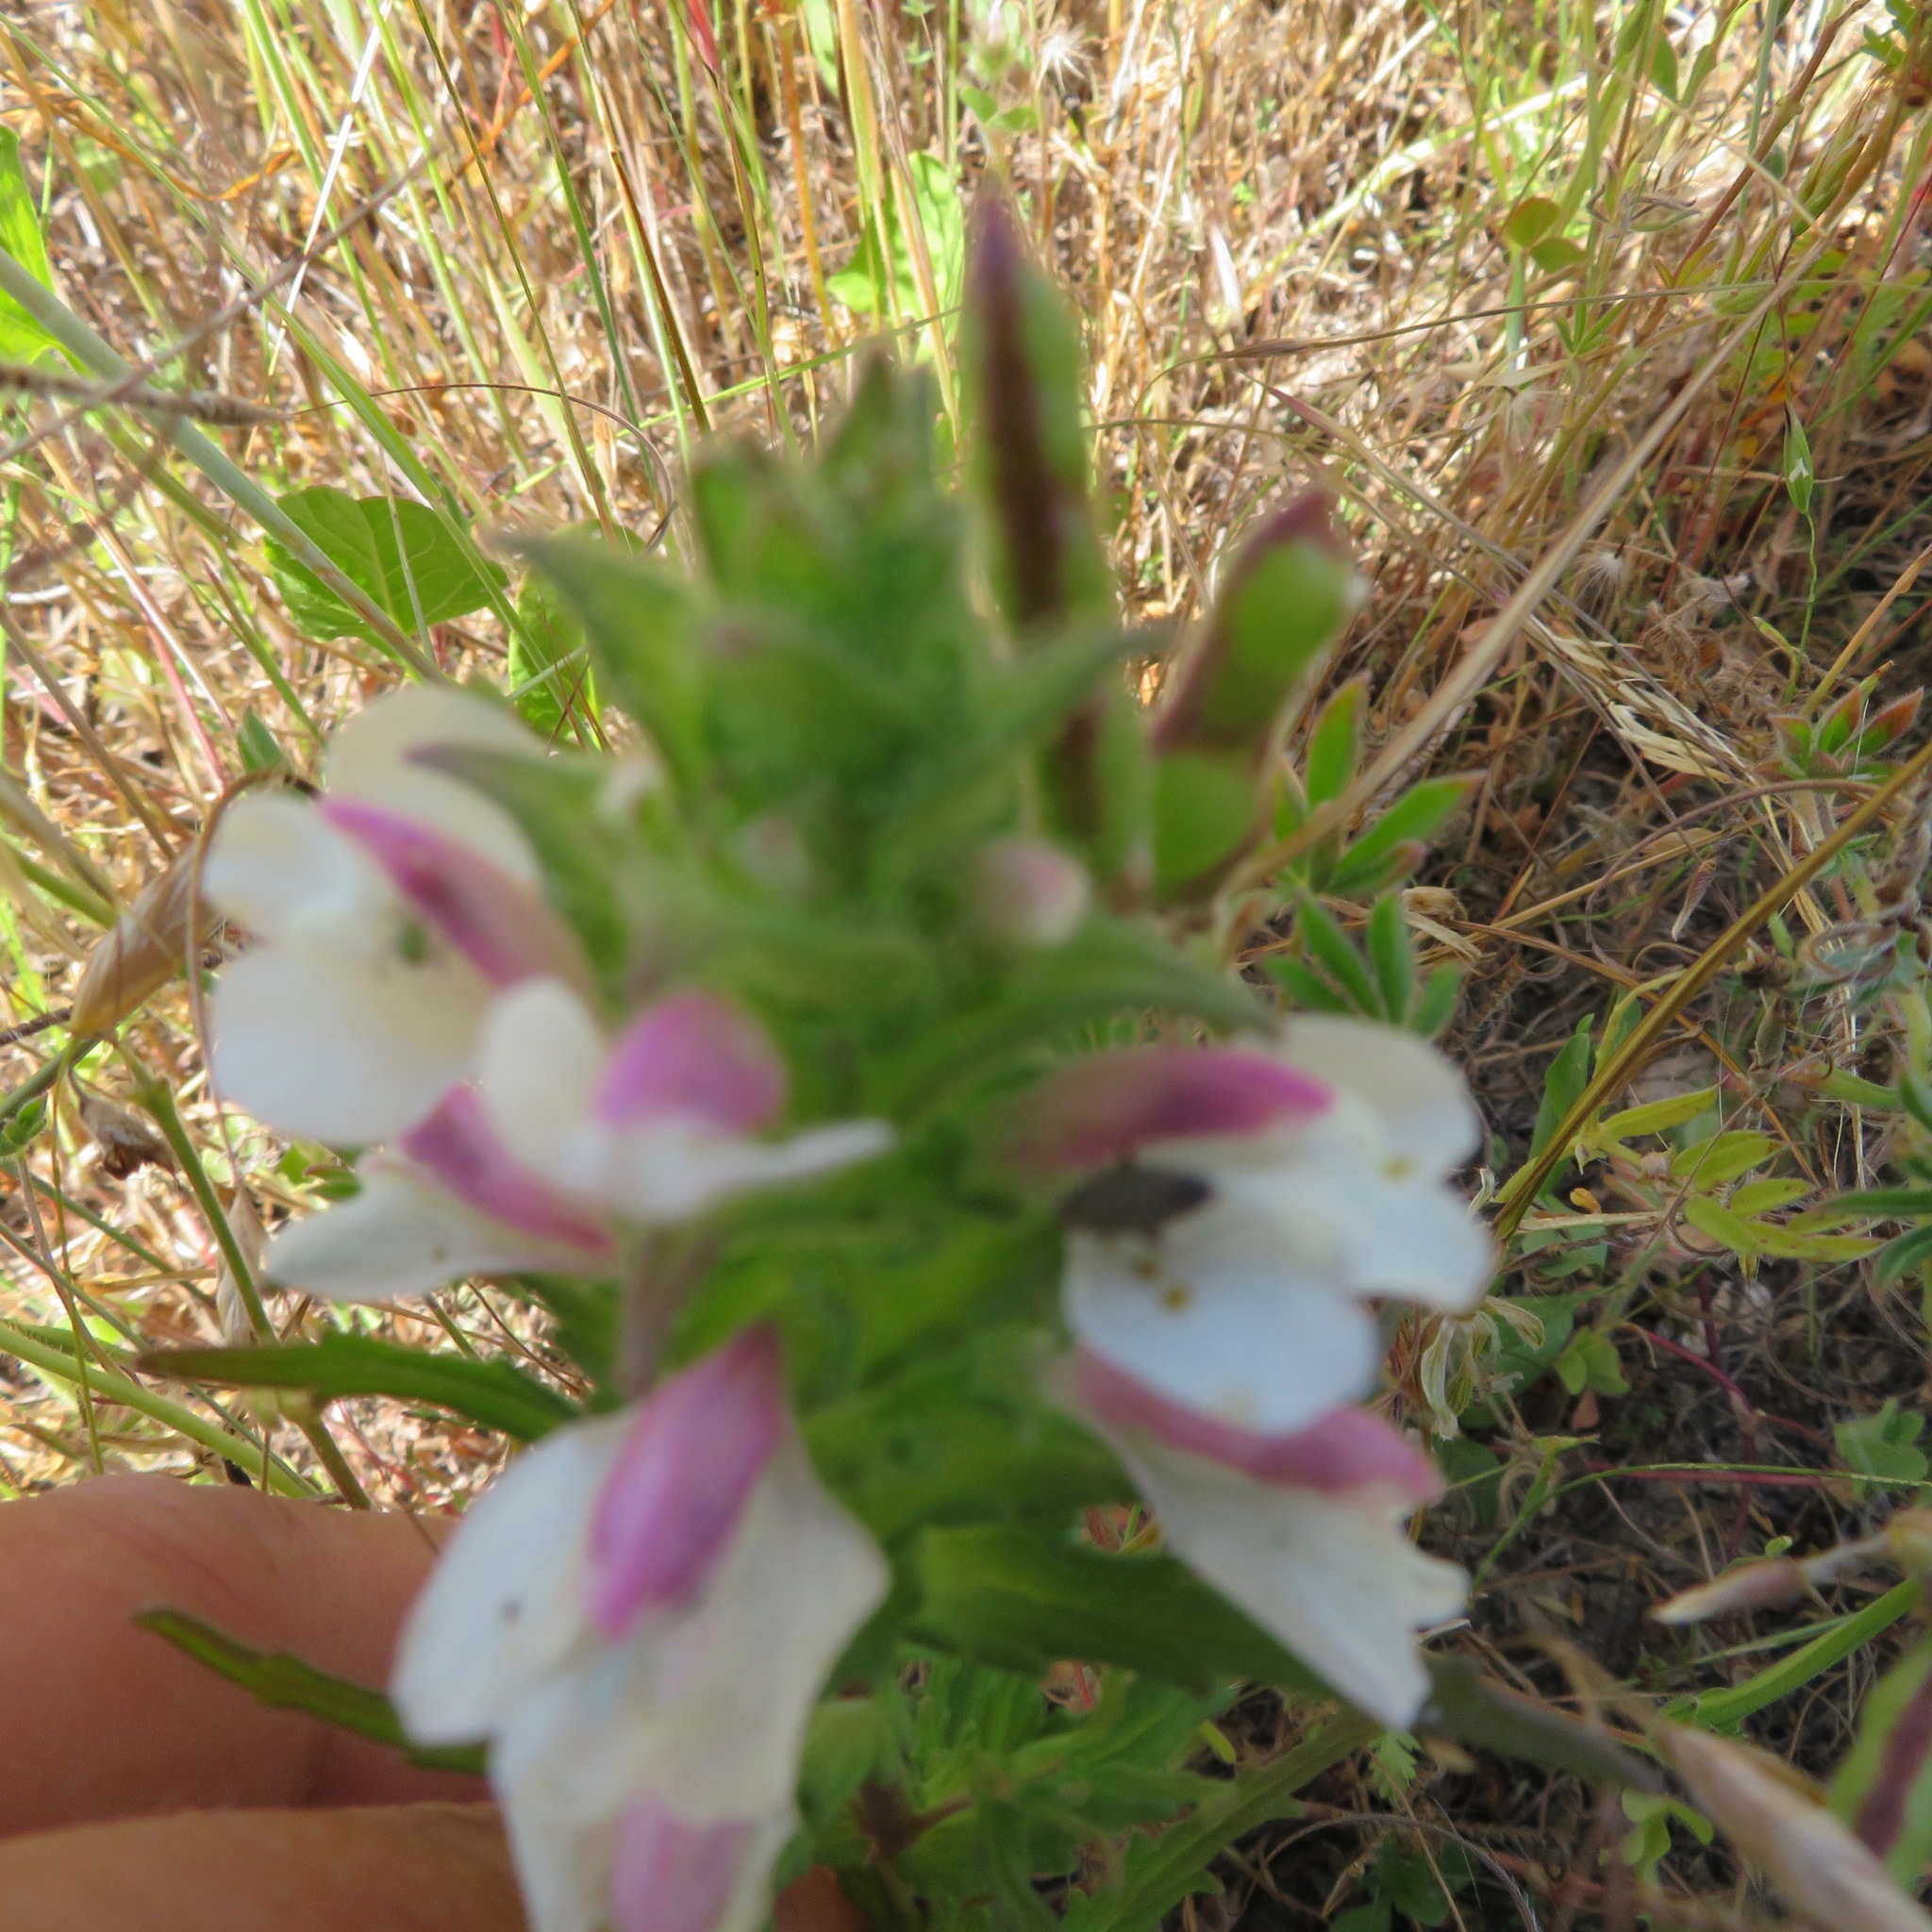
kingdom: Plantae
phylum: Tracheophyta
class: Magnoliopsida
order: Lamiales
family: Orobanchaceae
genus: Bellardia
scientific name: Bellardia trixago
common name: Mediterranean lineseed
